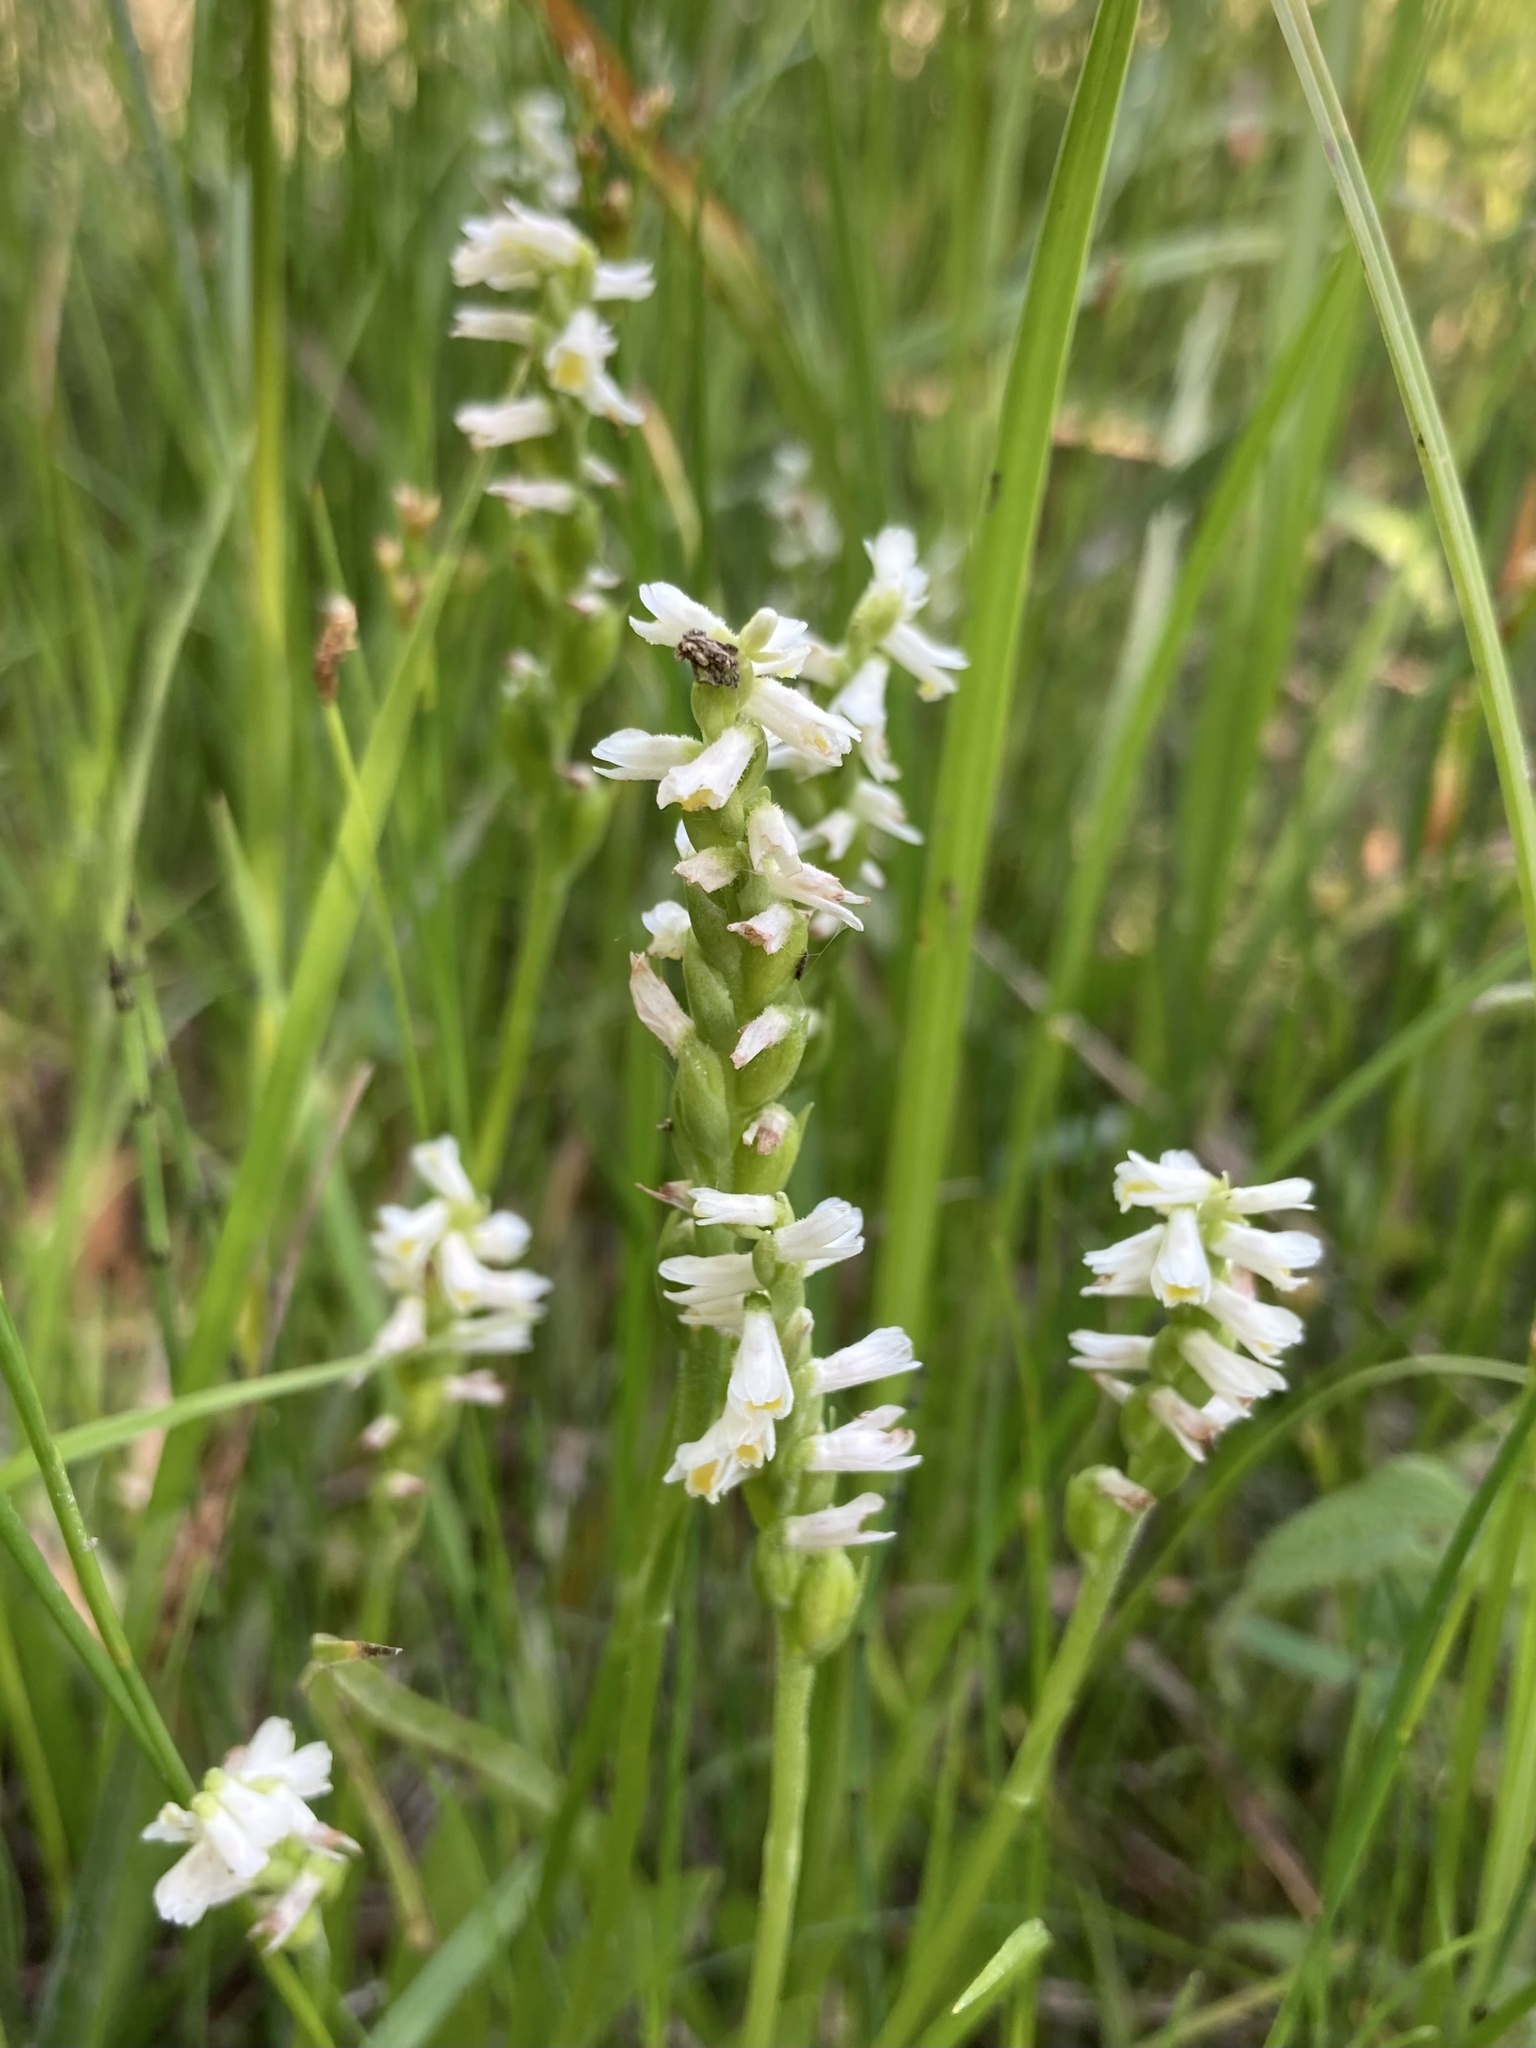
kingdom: Plantae
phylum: Tracheophyta
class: Liliopsida
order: Asparagales
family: Orchidaceae
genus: Spiranthes
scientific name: Spiranthes lucida
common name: Broad-leaved ladies'-tresses
